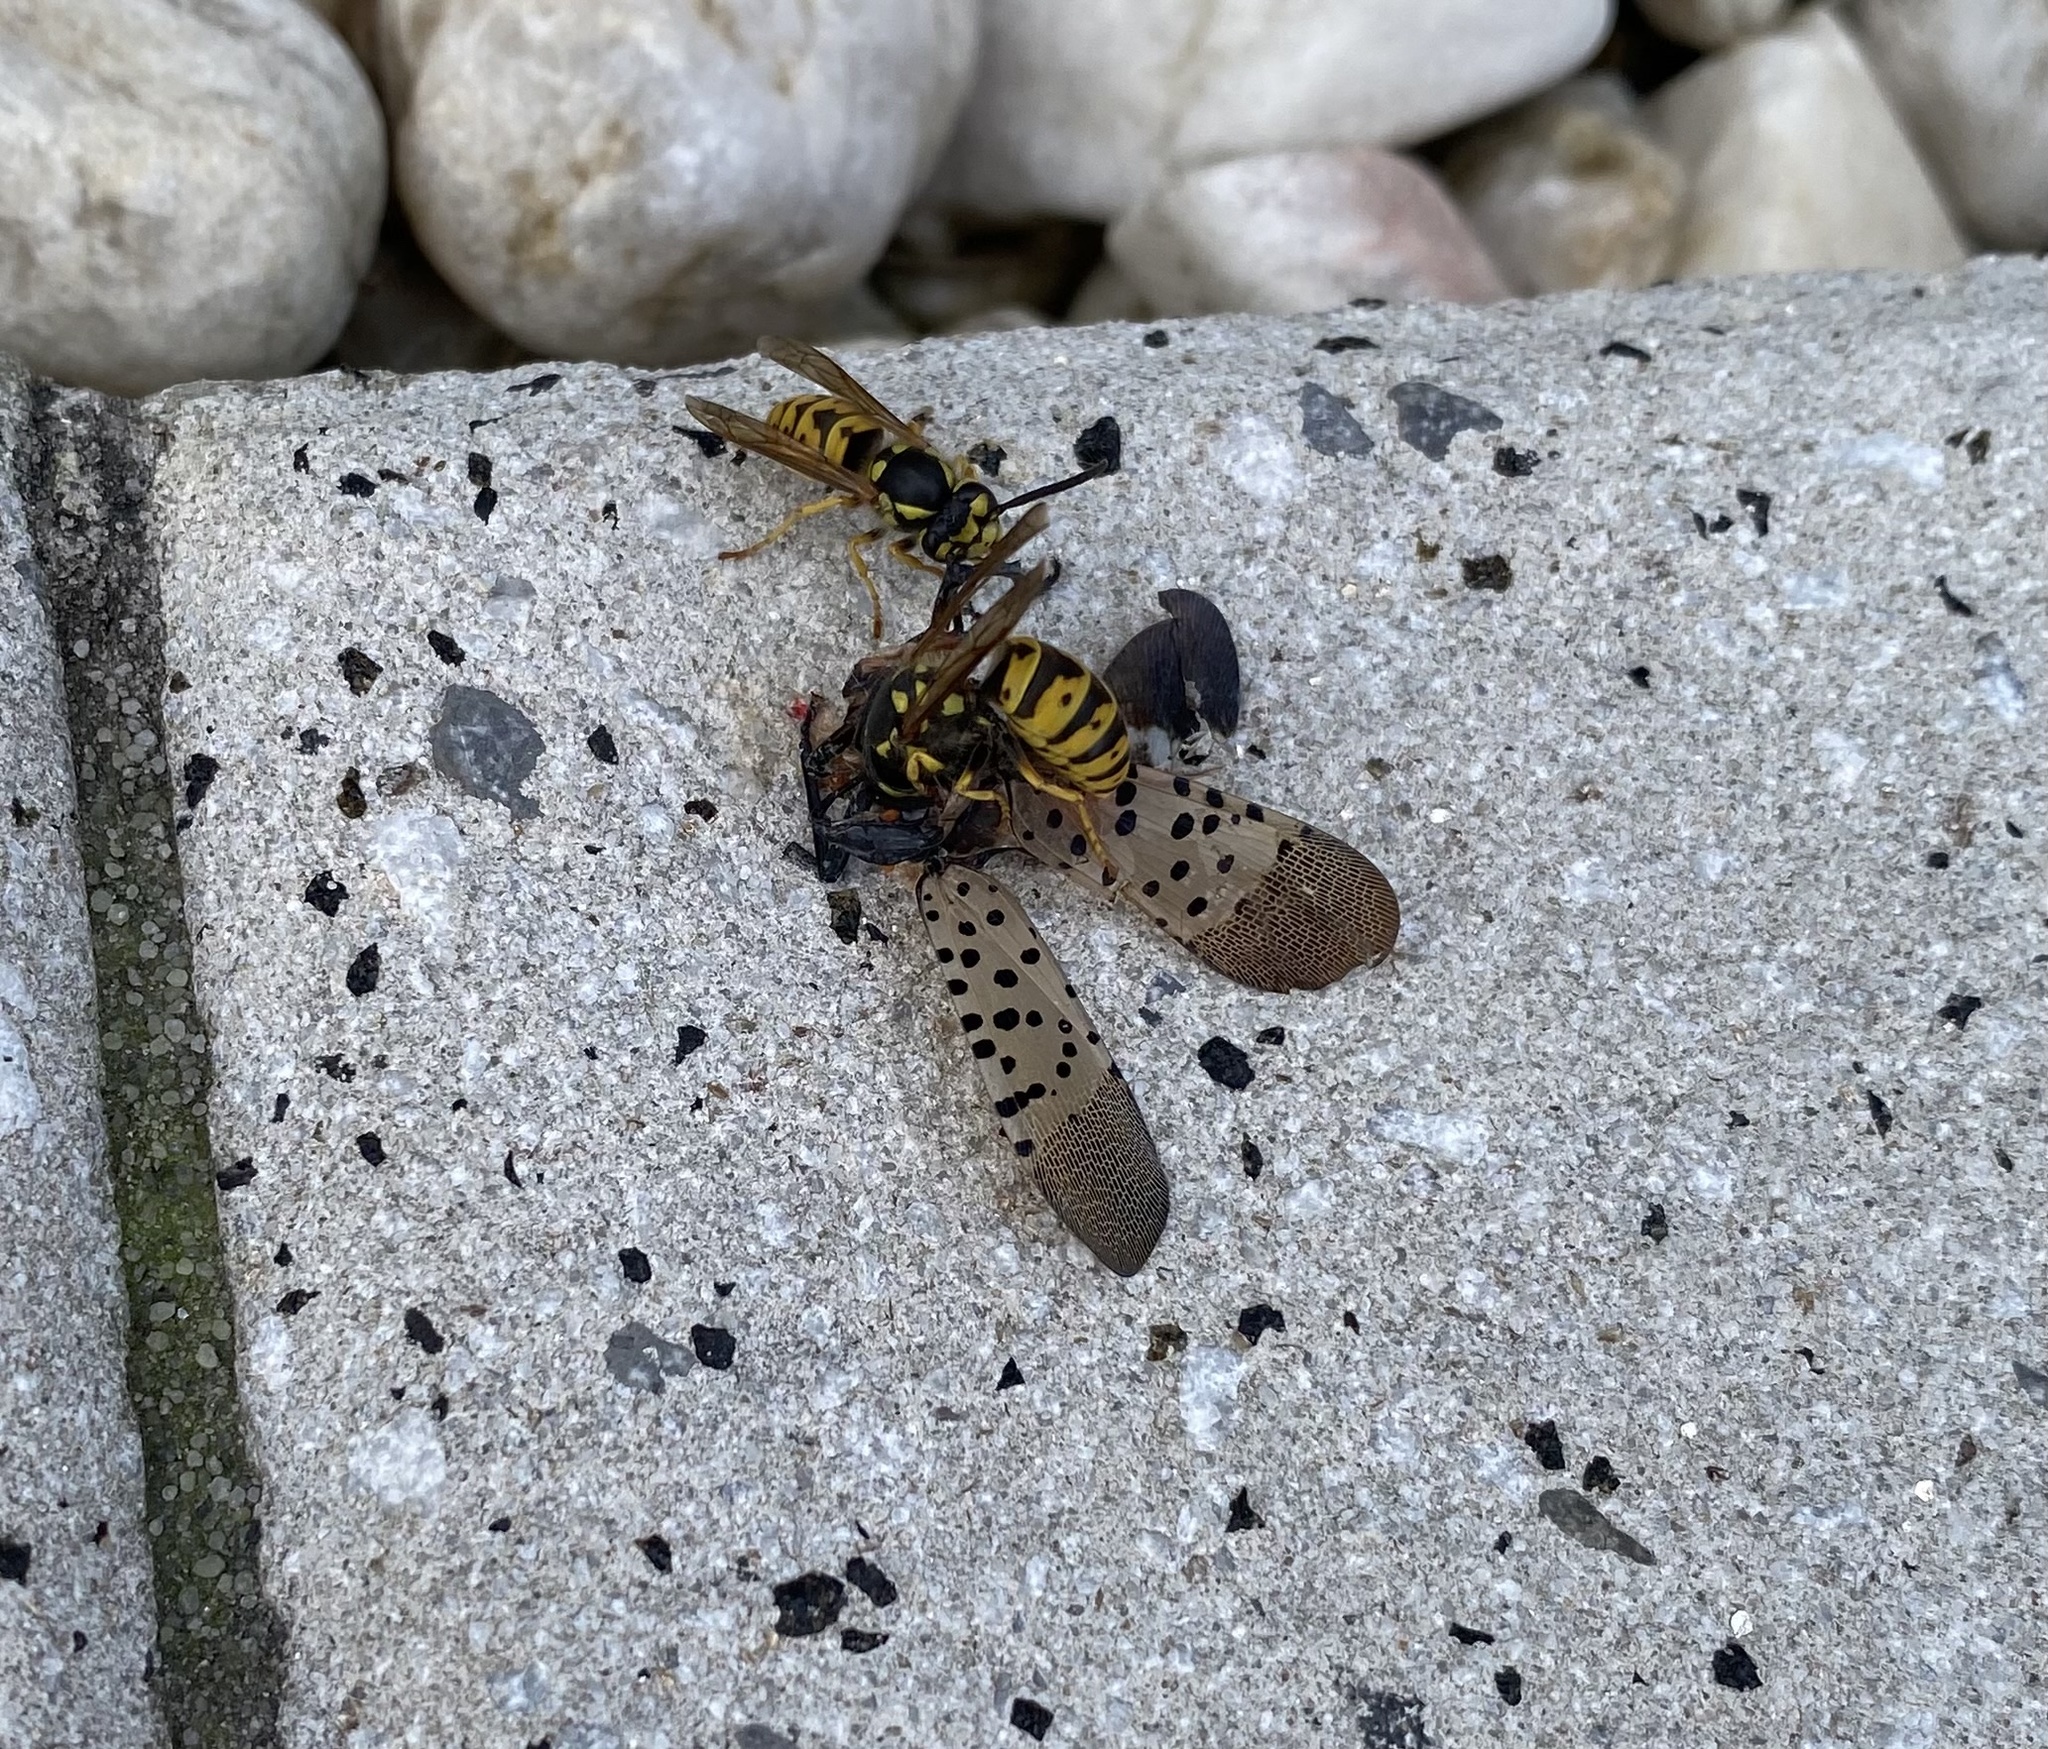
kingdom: Animalia
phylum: Arthropoda
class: Insecta
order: Hymenoptera
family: Vespidae
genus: Vespula
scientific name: Vespula germanica
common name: German wasp
